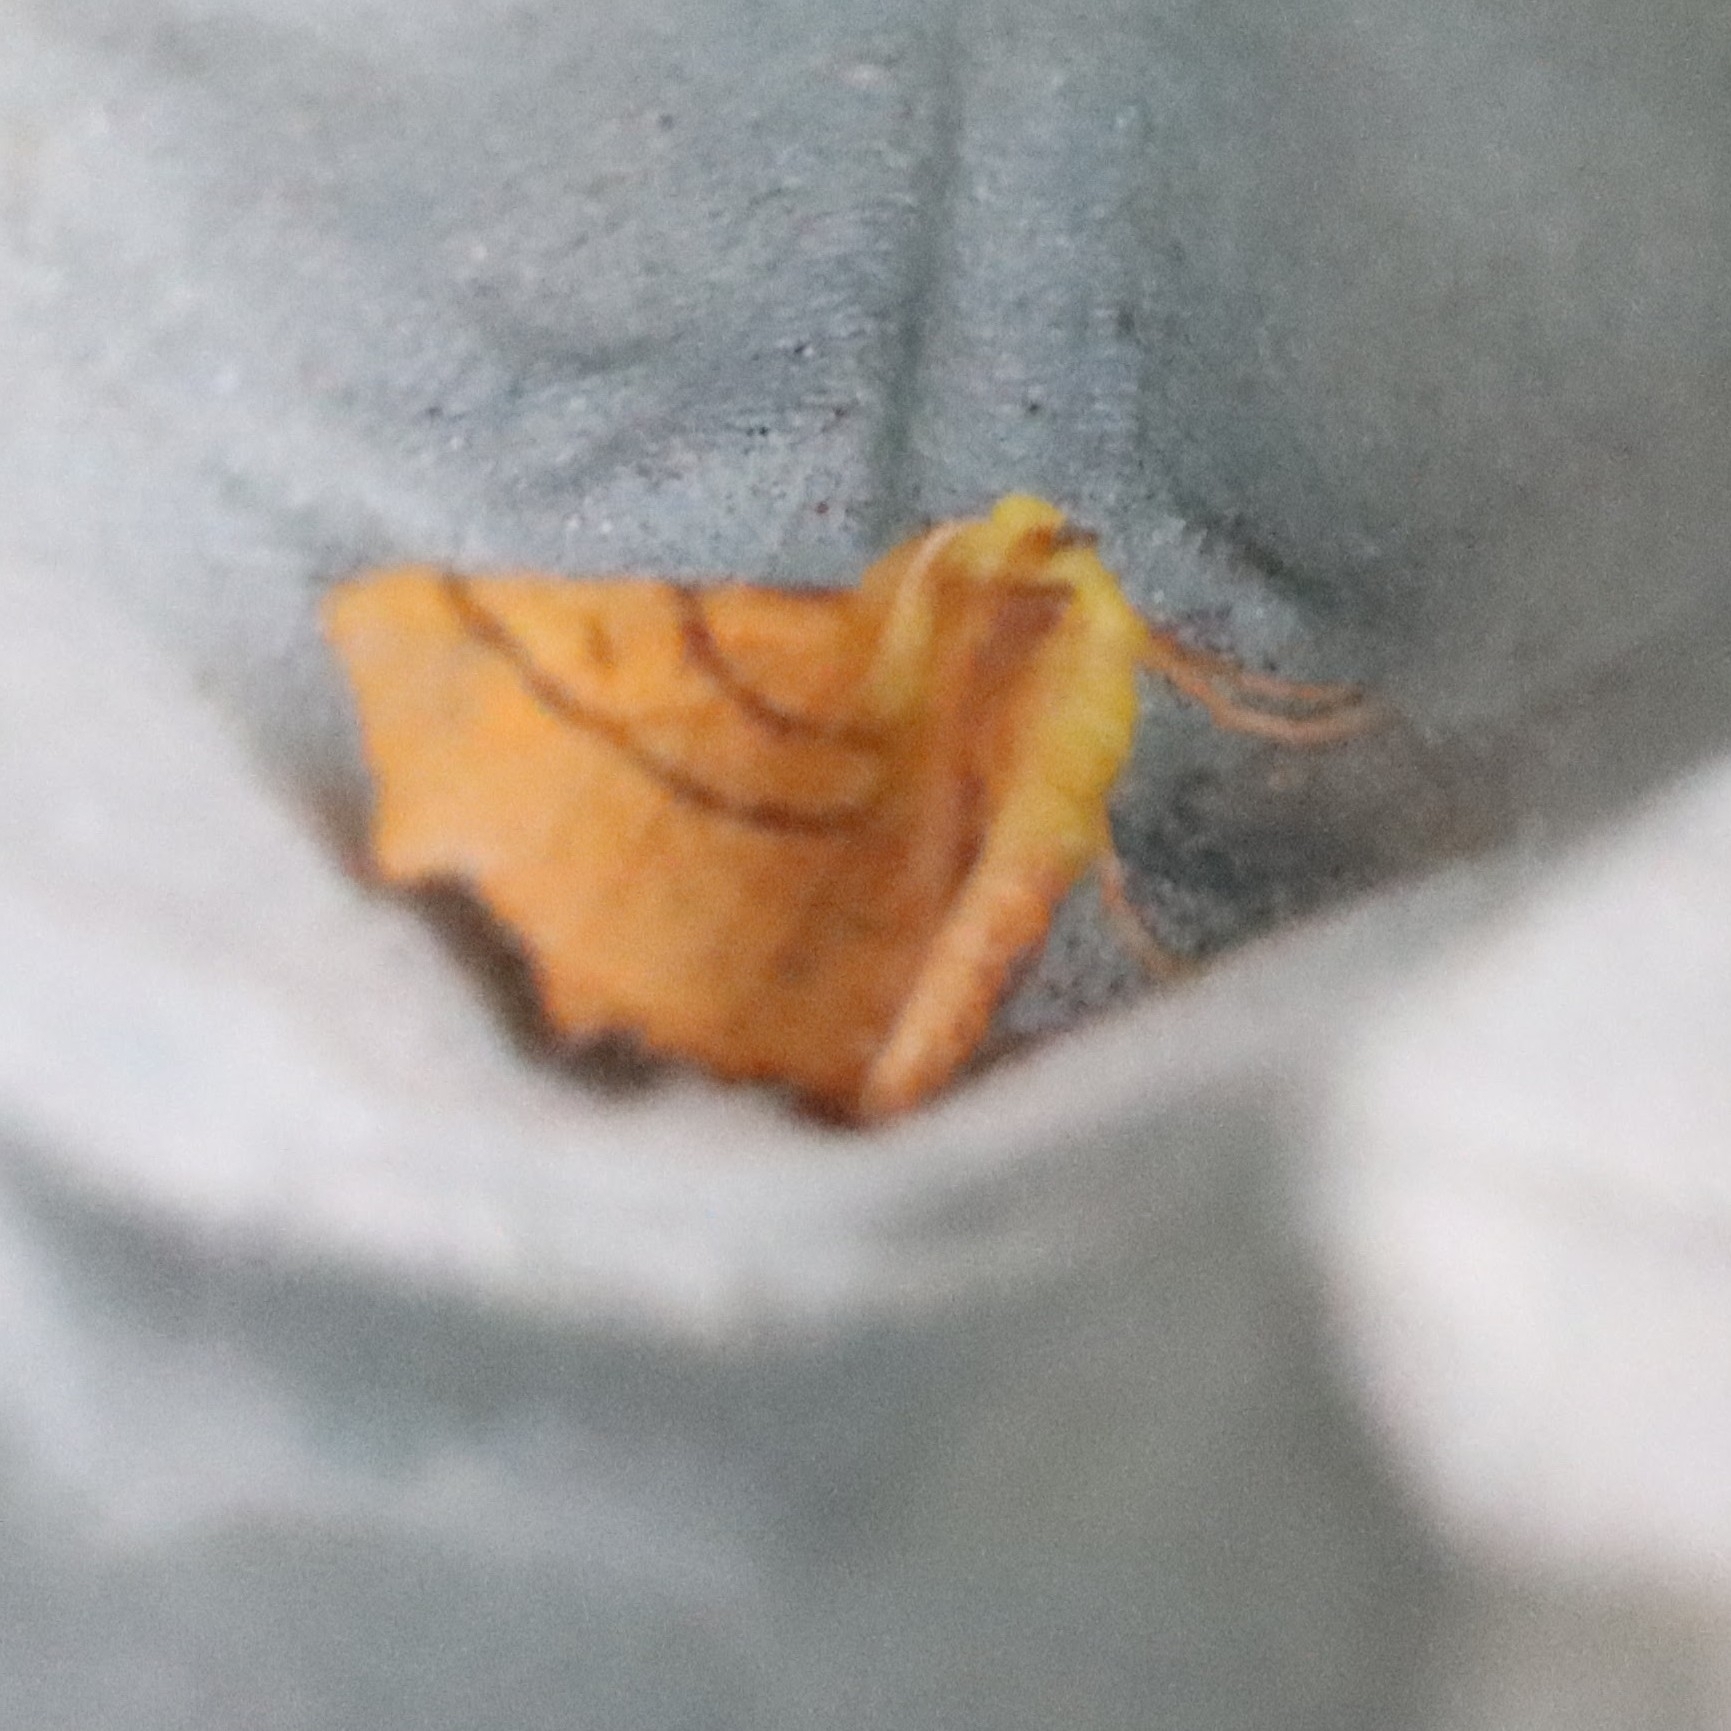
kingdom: Animalia
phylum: Arthropoda
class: Insecta
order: Lepidoptera
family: Geometridae
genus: Ennomos
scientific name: Ennomos alniaria
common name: Canary-shouldered thorn
